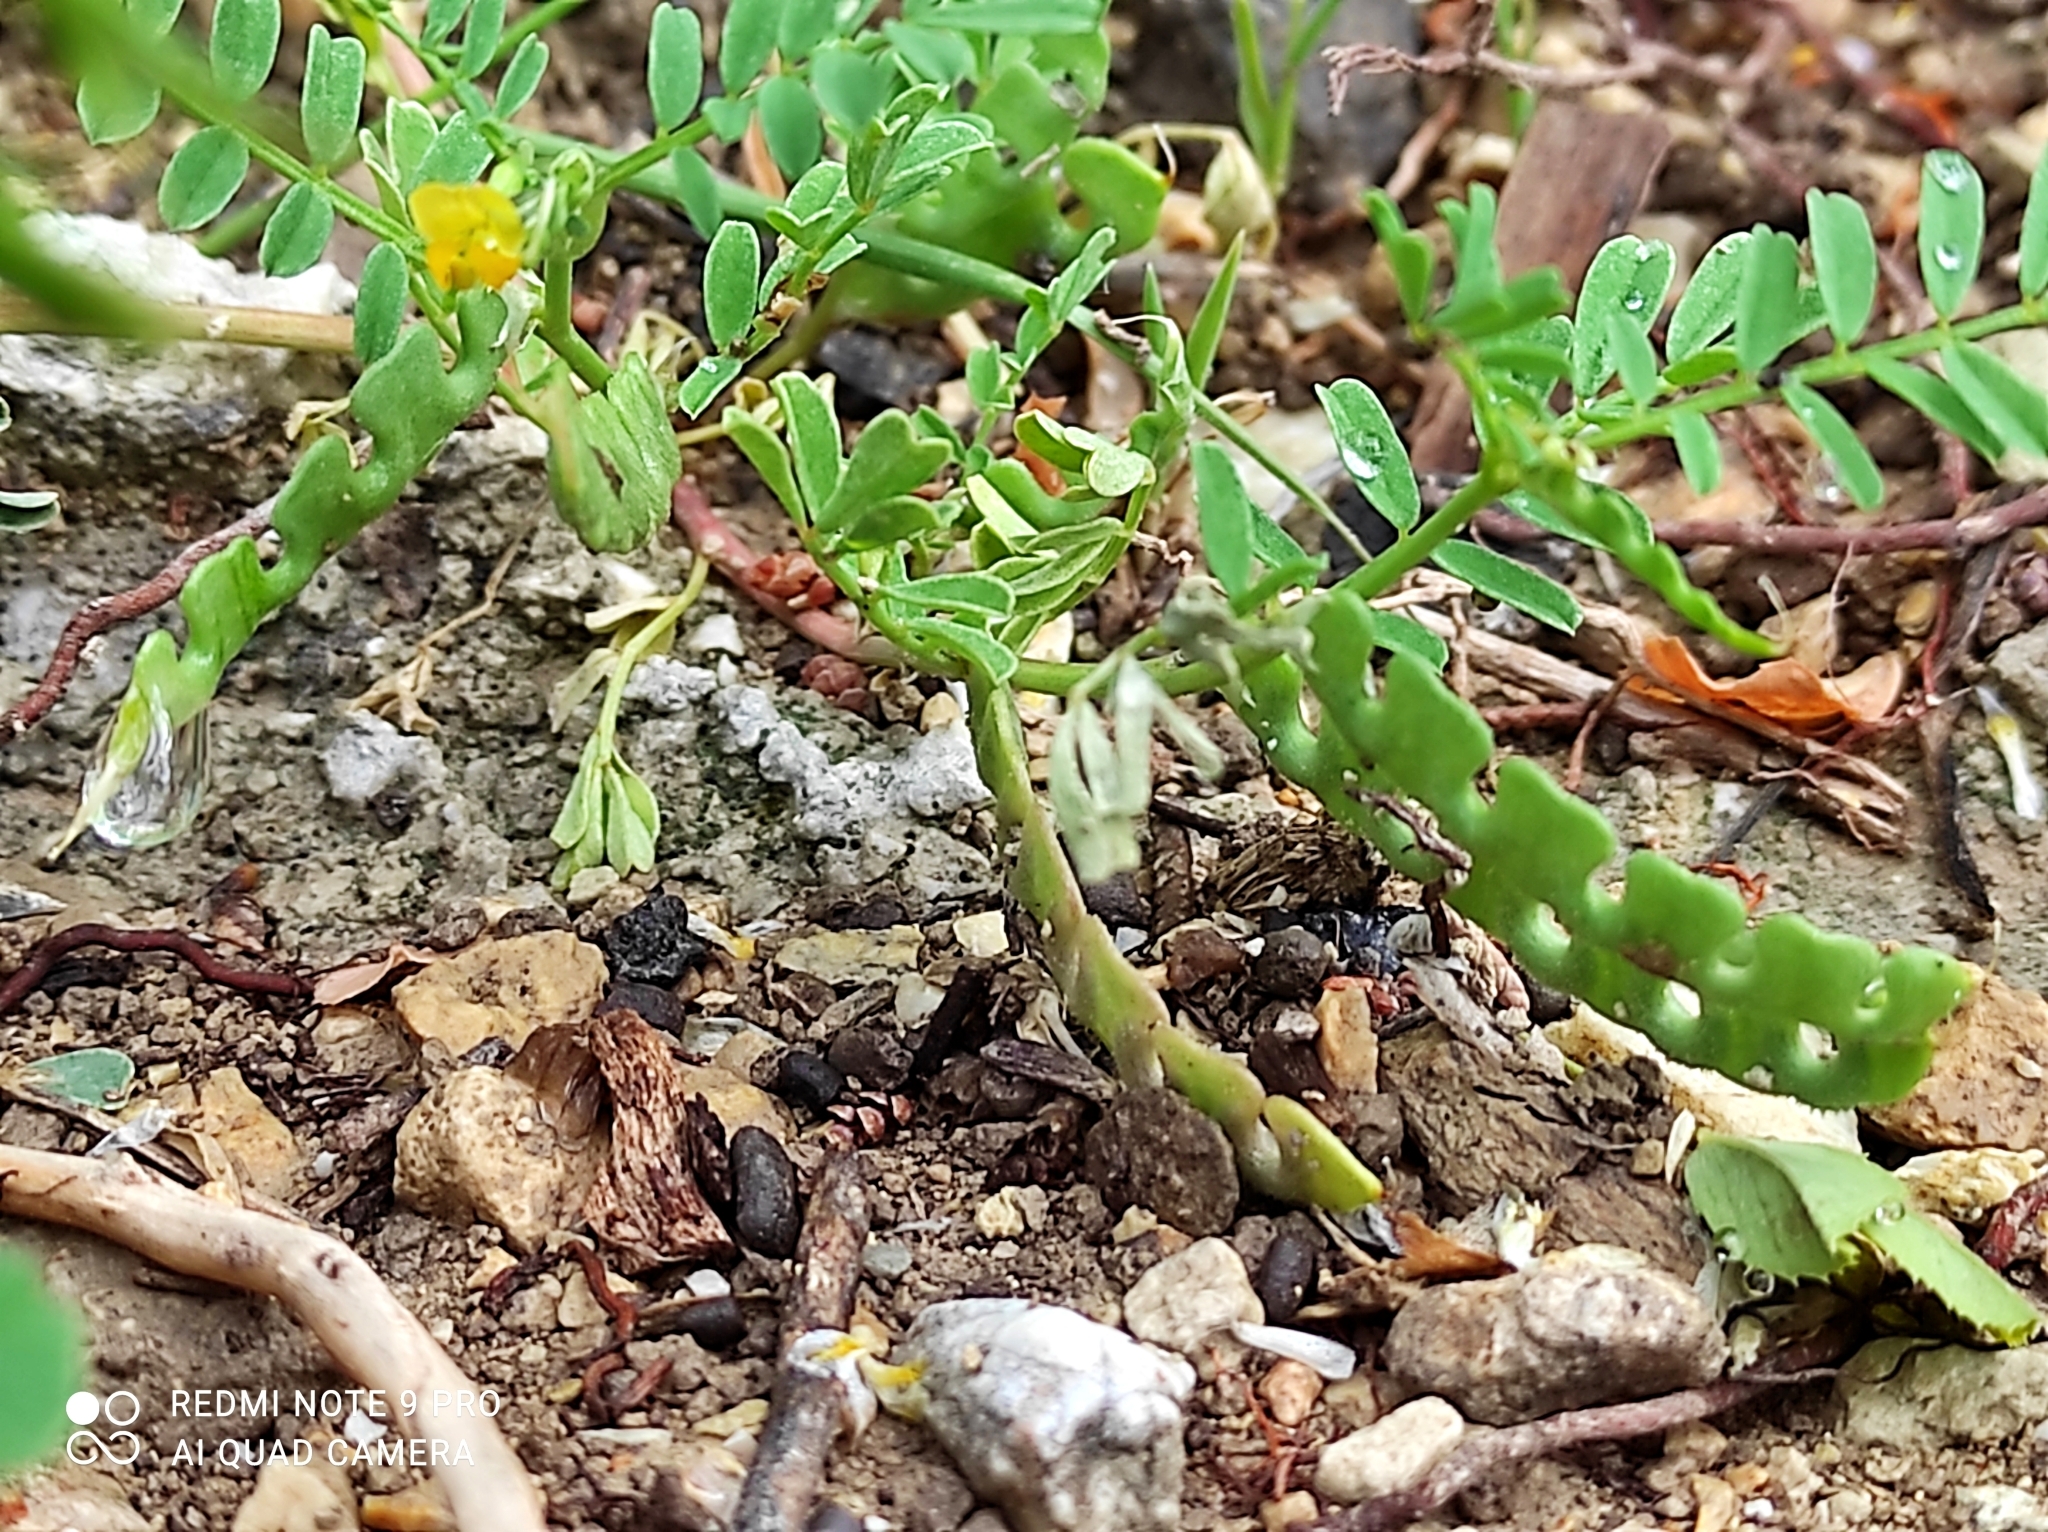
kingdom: Plantae
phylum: Tracheophyta
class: Magnoliopsida
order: Fabales
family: Fabaceae
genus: Hippocrepis
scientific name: Hippocrepis biflora
